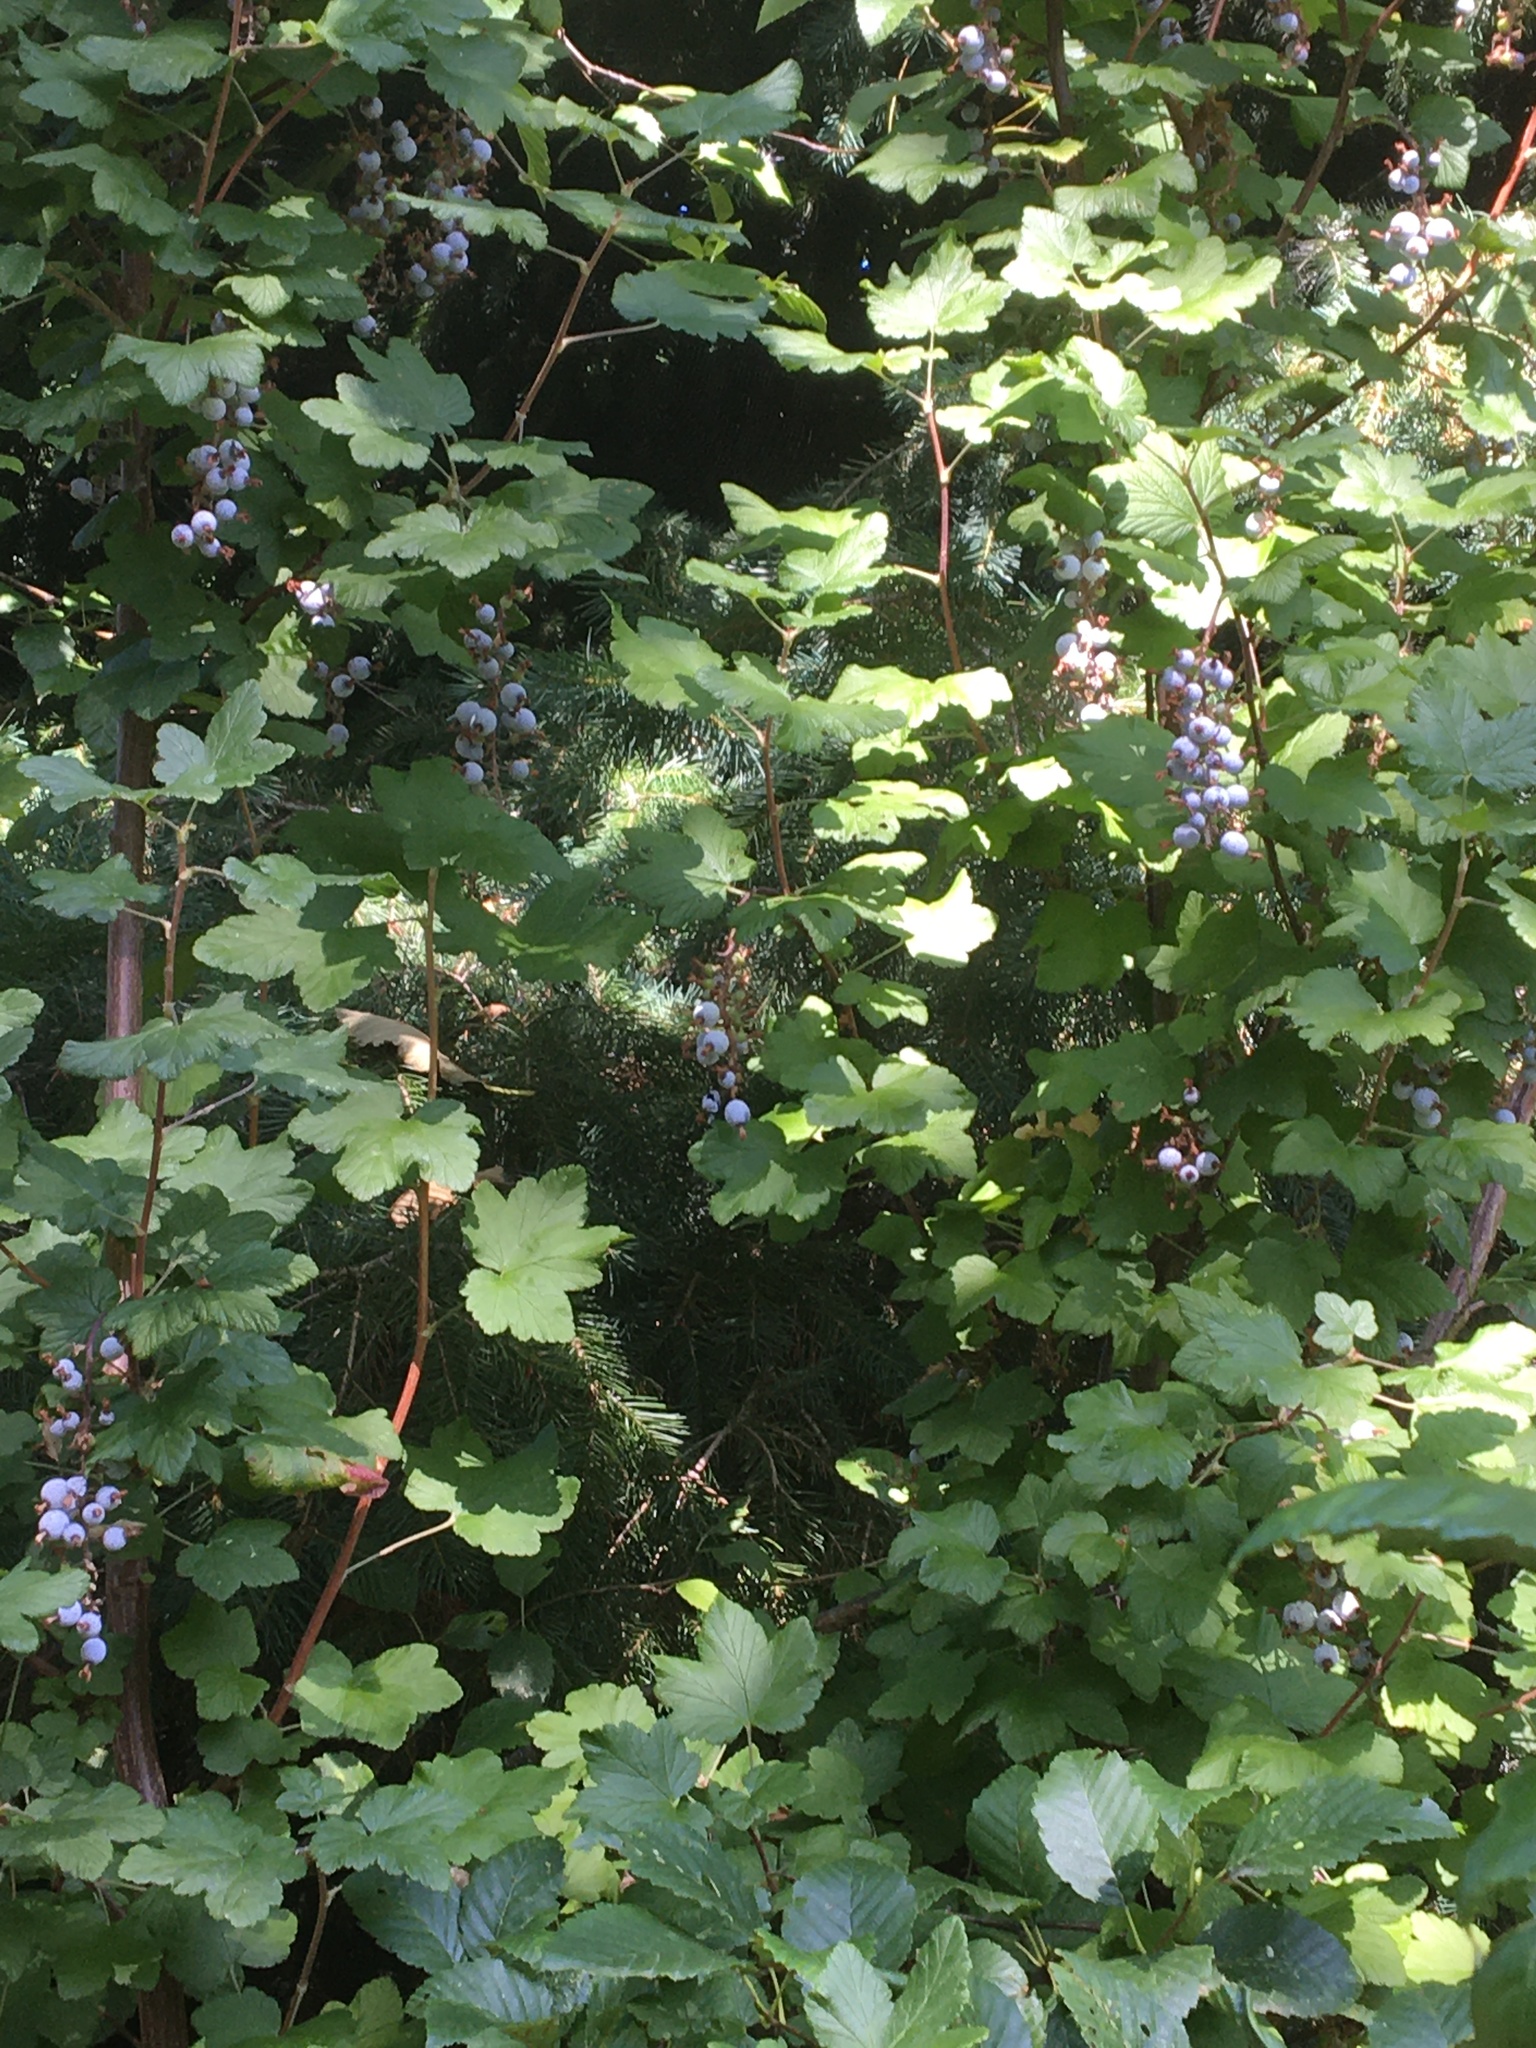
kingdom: Plantae
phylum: Tracheophyta
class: Magnoliopsida
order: Saxifragales
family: Grossulariaceae
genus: Ribes
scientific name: Ribes sanguineum
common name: Flowering currant
